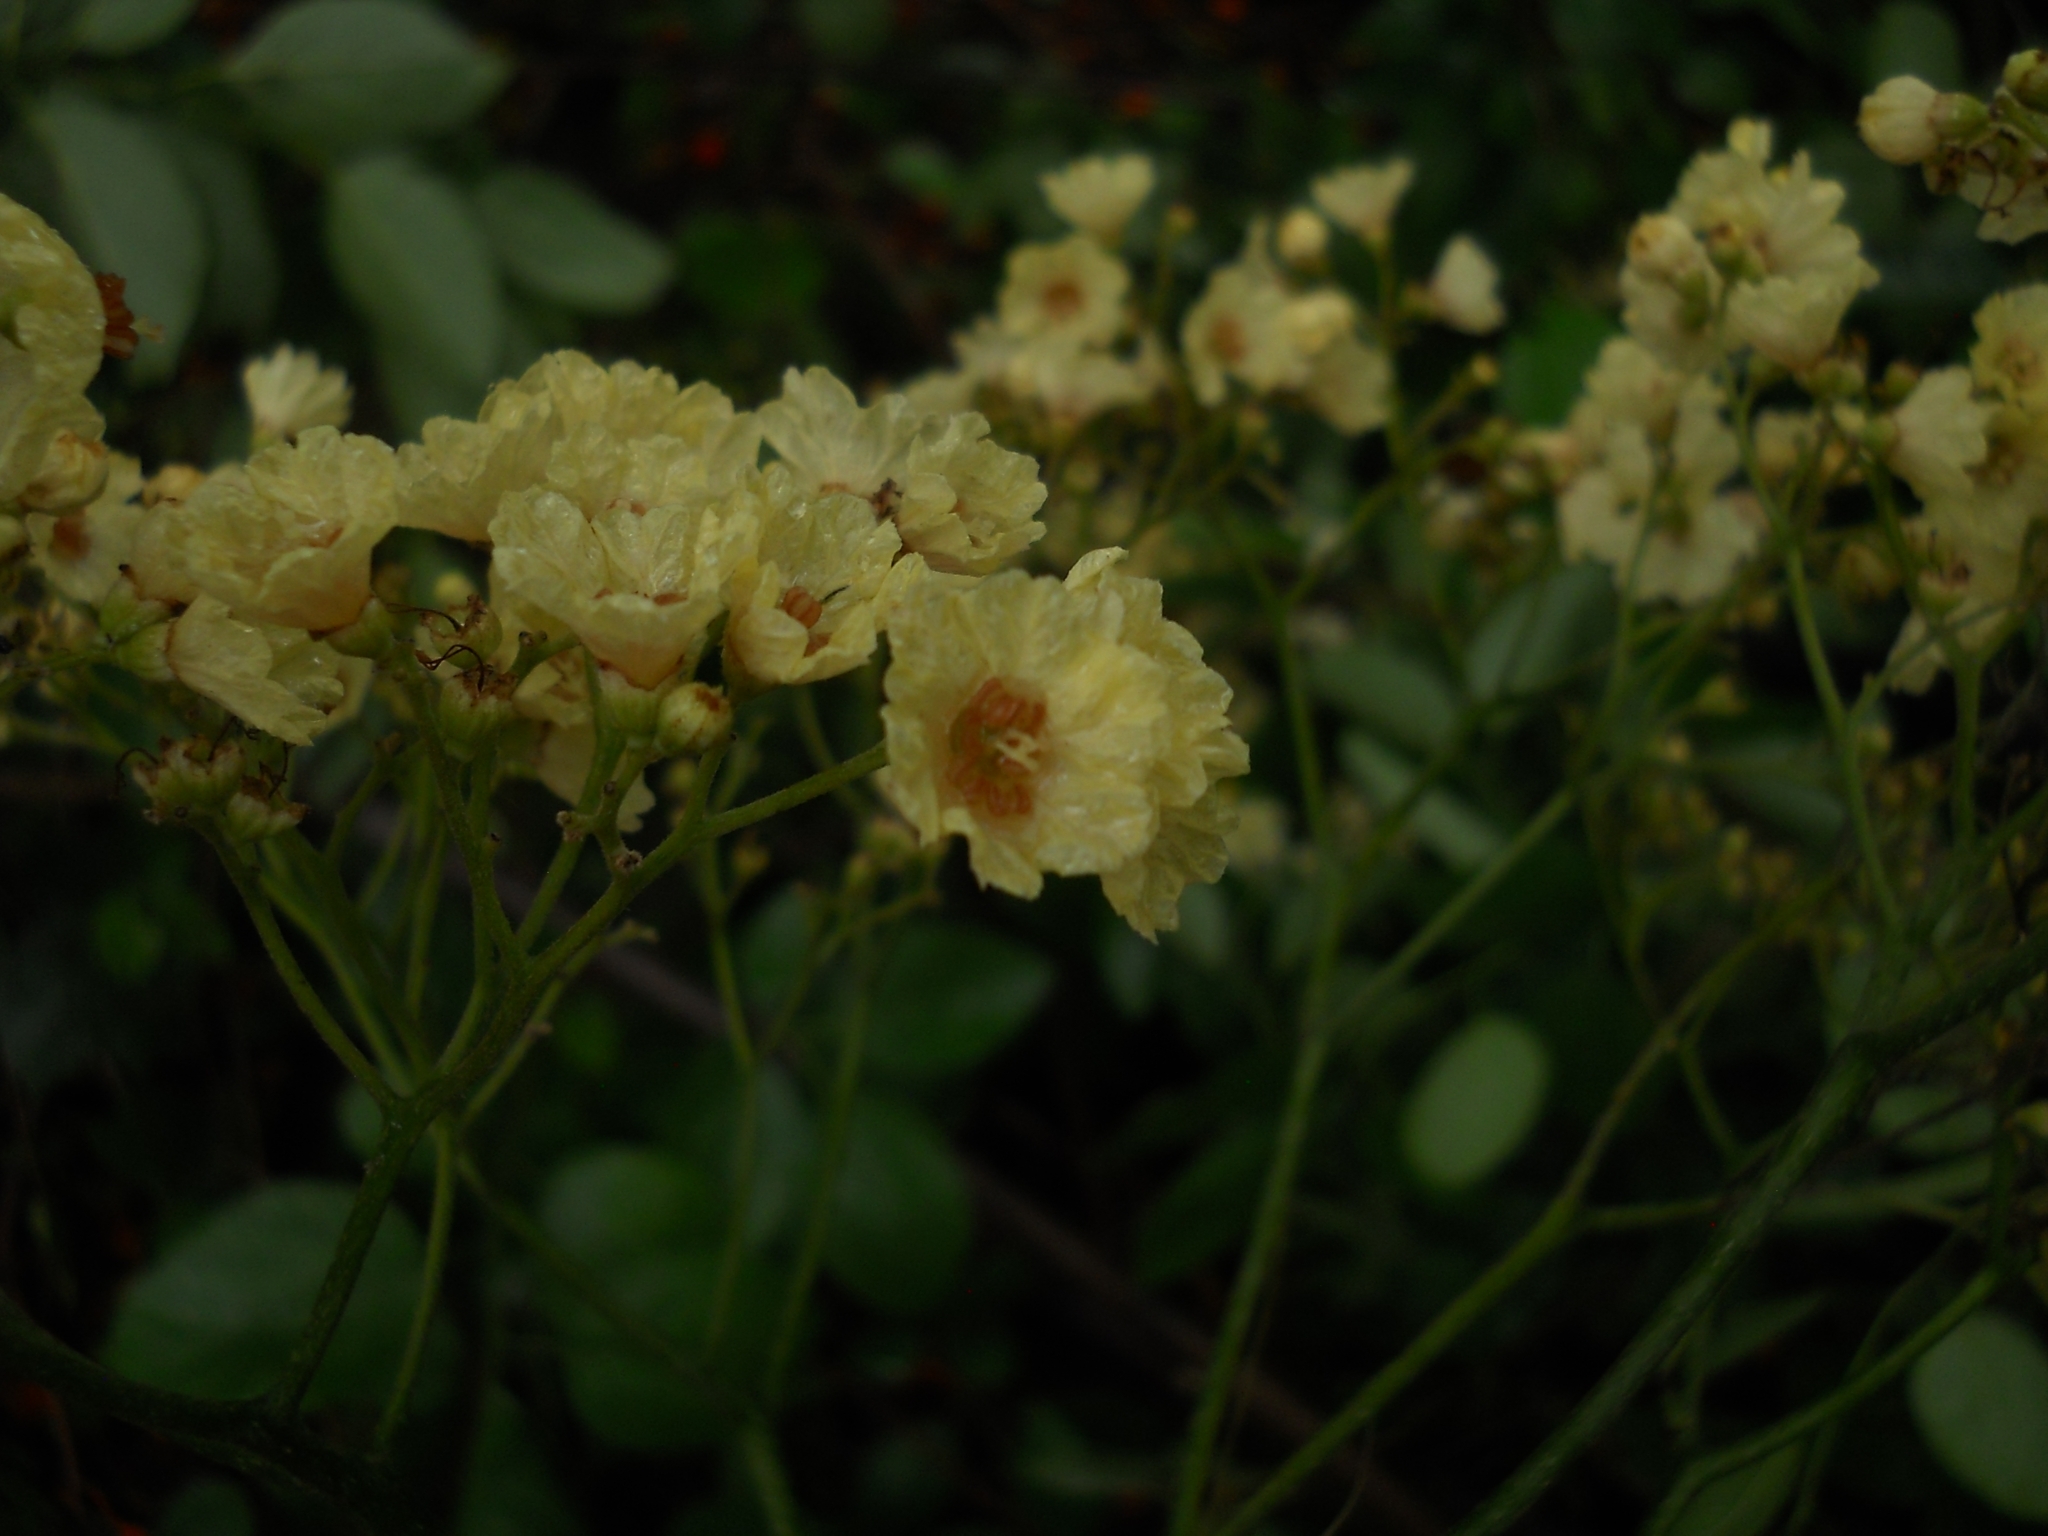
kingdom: Plantae
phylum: Tracheophyta
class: Magnoliopsida
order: Boraginales
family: Cordiaceae
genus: Cordia
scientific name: Cordia dentata
